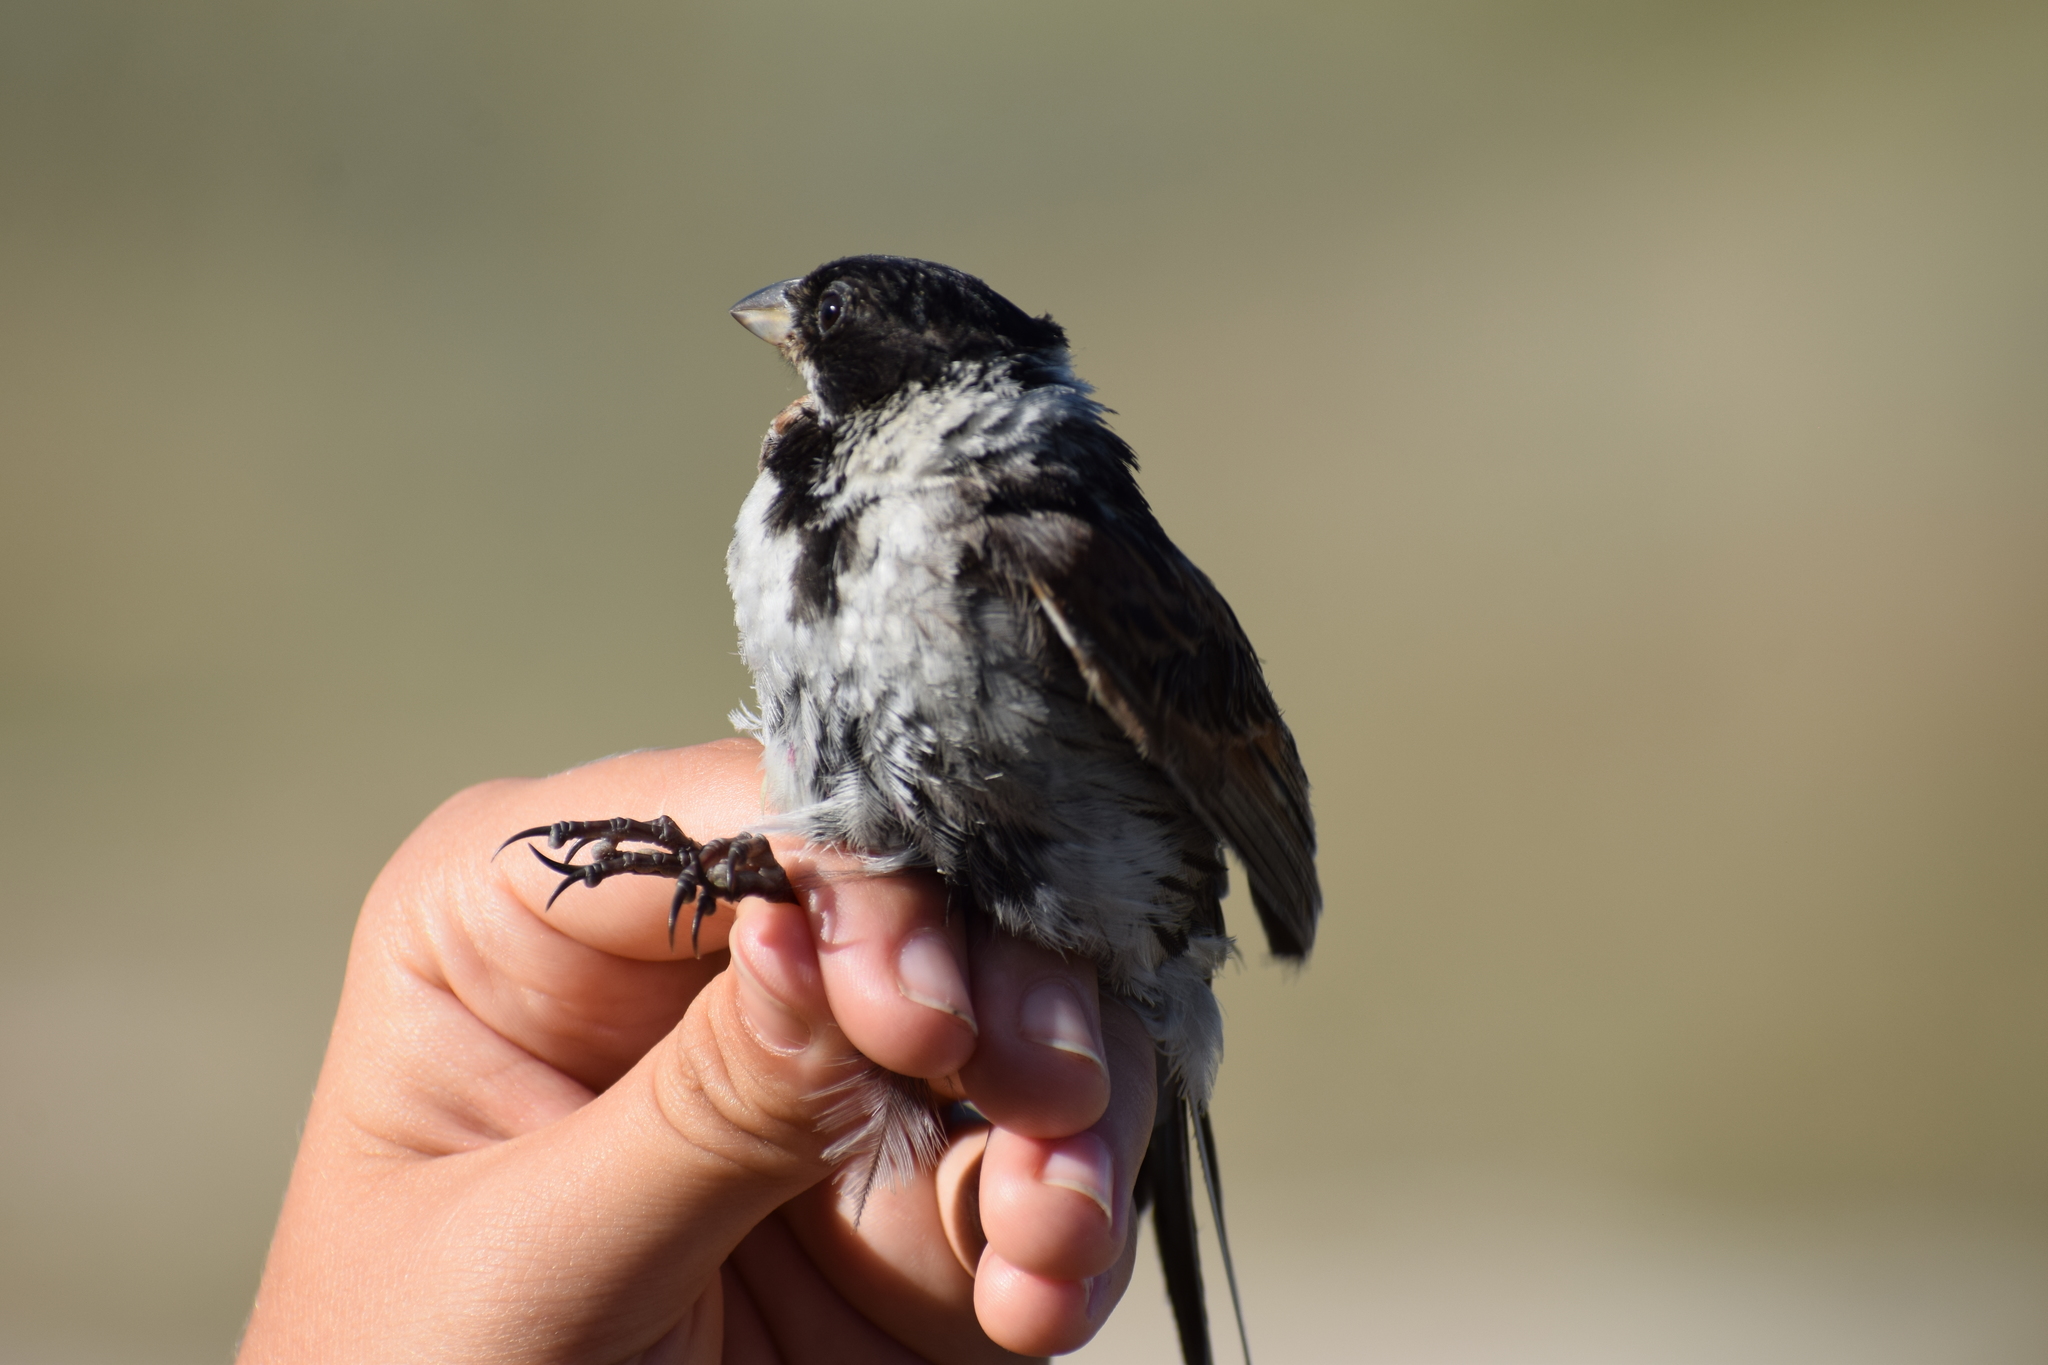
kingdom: Animalia
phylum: Chordata
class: Aves
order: Passeriformes
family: Emberizidae
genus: Emberiza
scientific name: Emberiza schoeniclus
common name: Reed bunting
